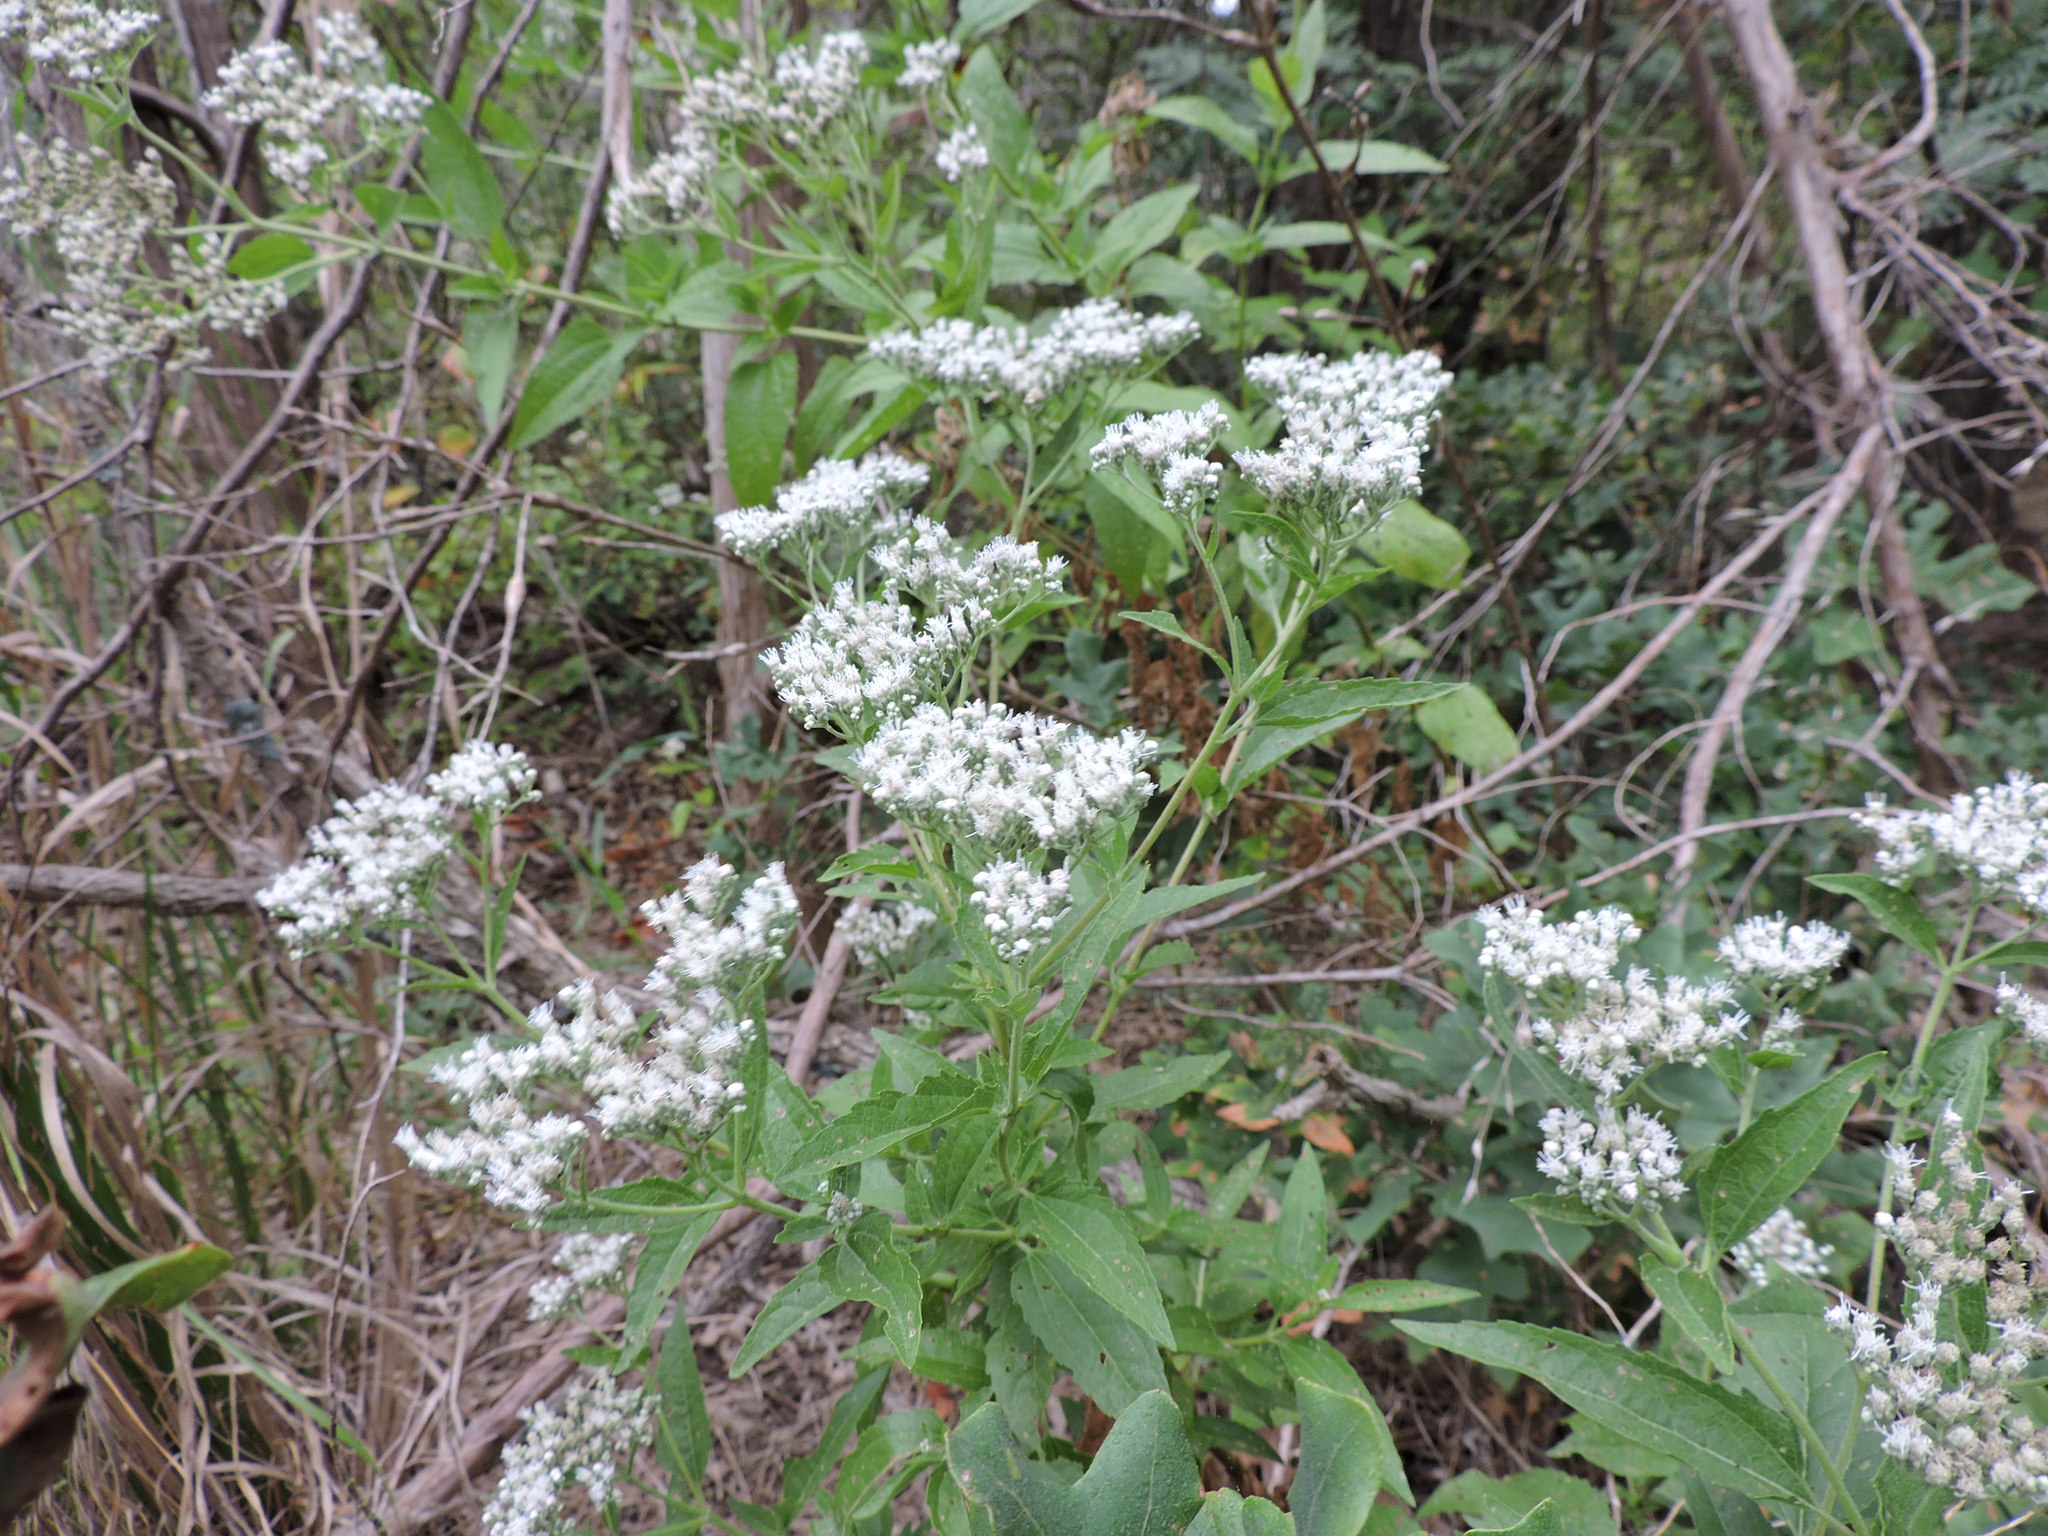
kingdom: Plantae
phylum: Tracheophyta
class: Magnoliopsida
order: Asterales
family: Asteraceae
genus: Eupatorium
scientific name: Eupatorium serotinum
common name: Late boneset
